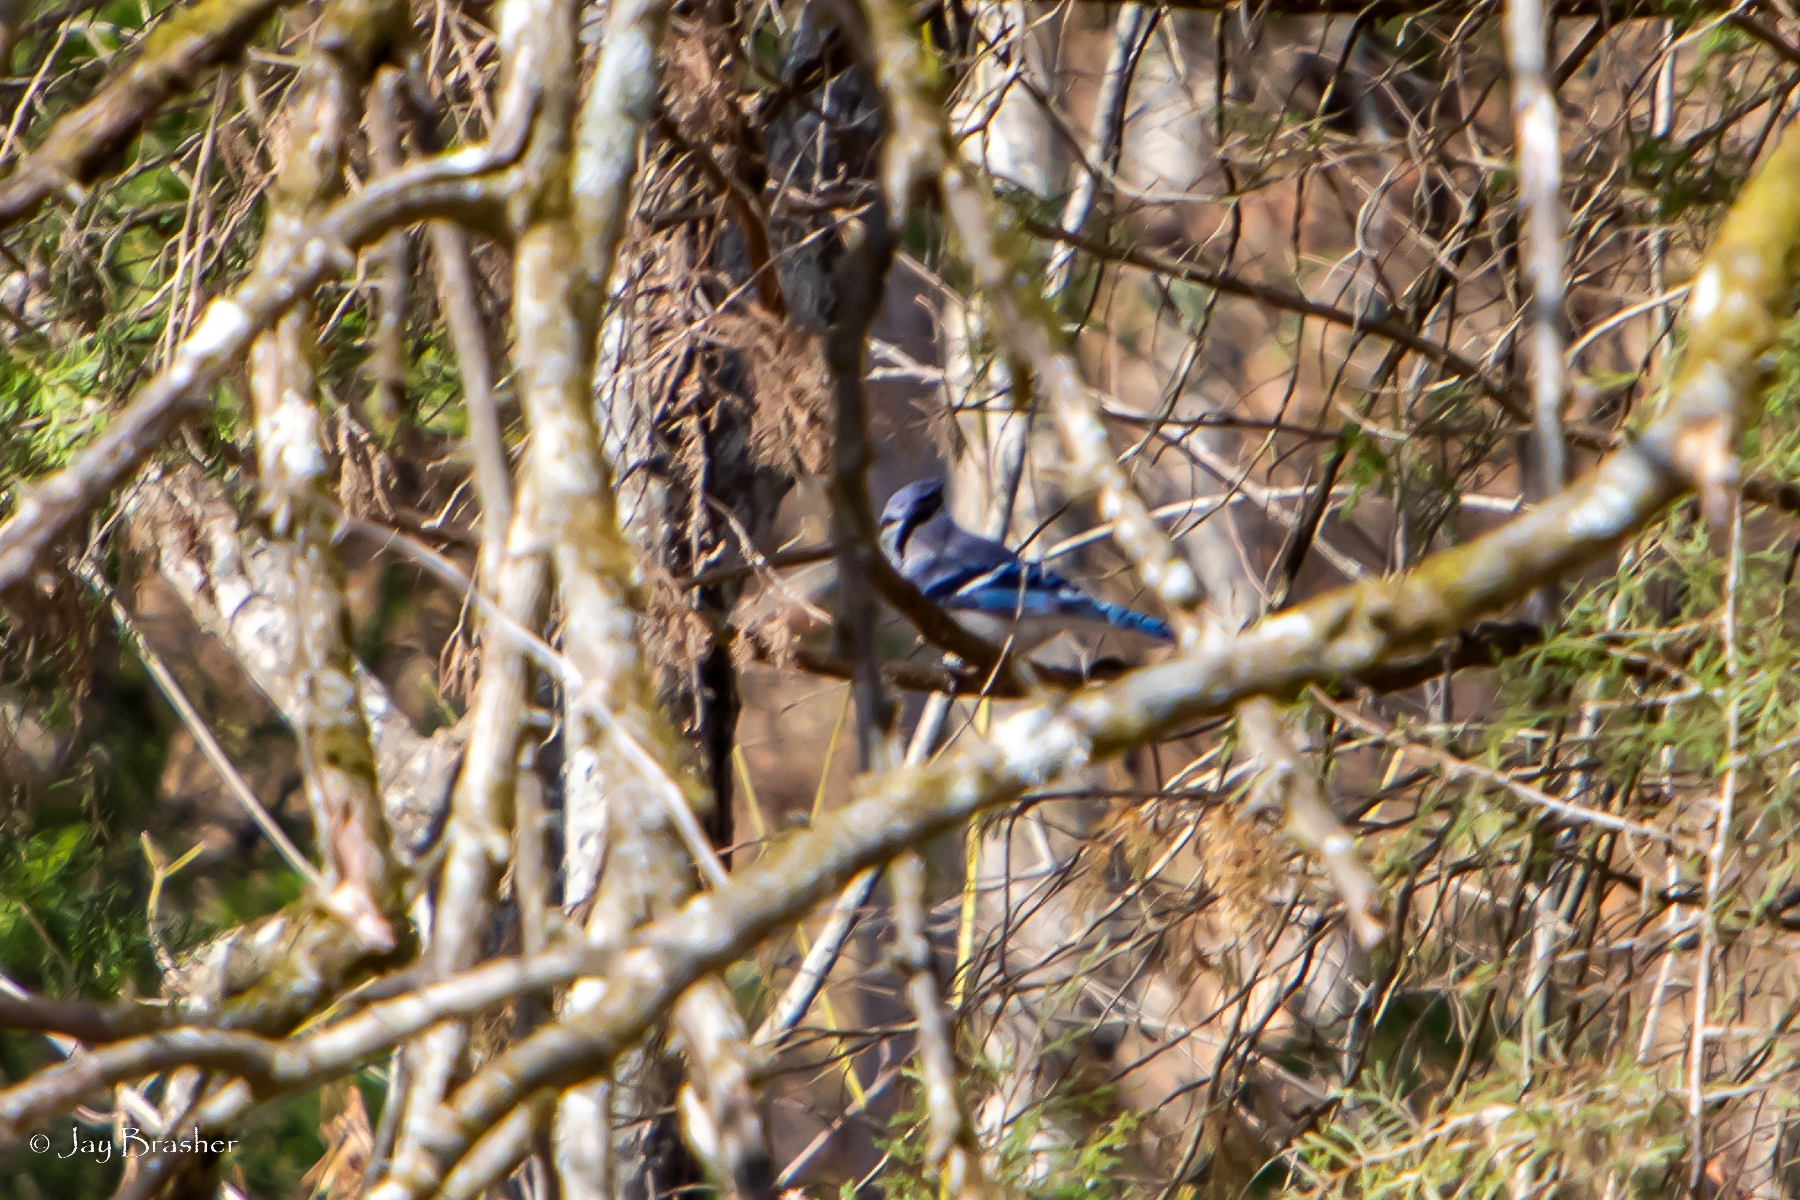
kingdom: Animalia
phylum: Chordata
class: Aves
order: Passeriformes
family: Corvidae
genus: Cyanocitta
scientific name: Cyanocitta cristata
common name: Blue jay
